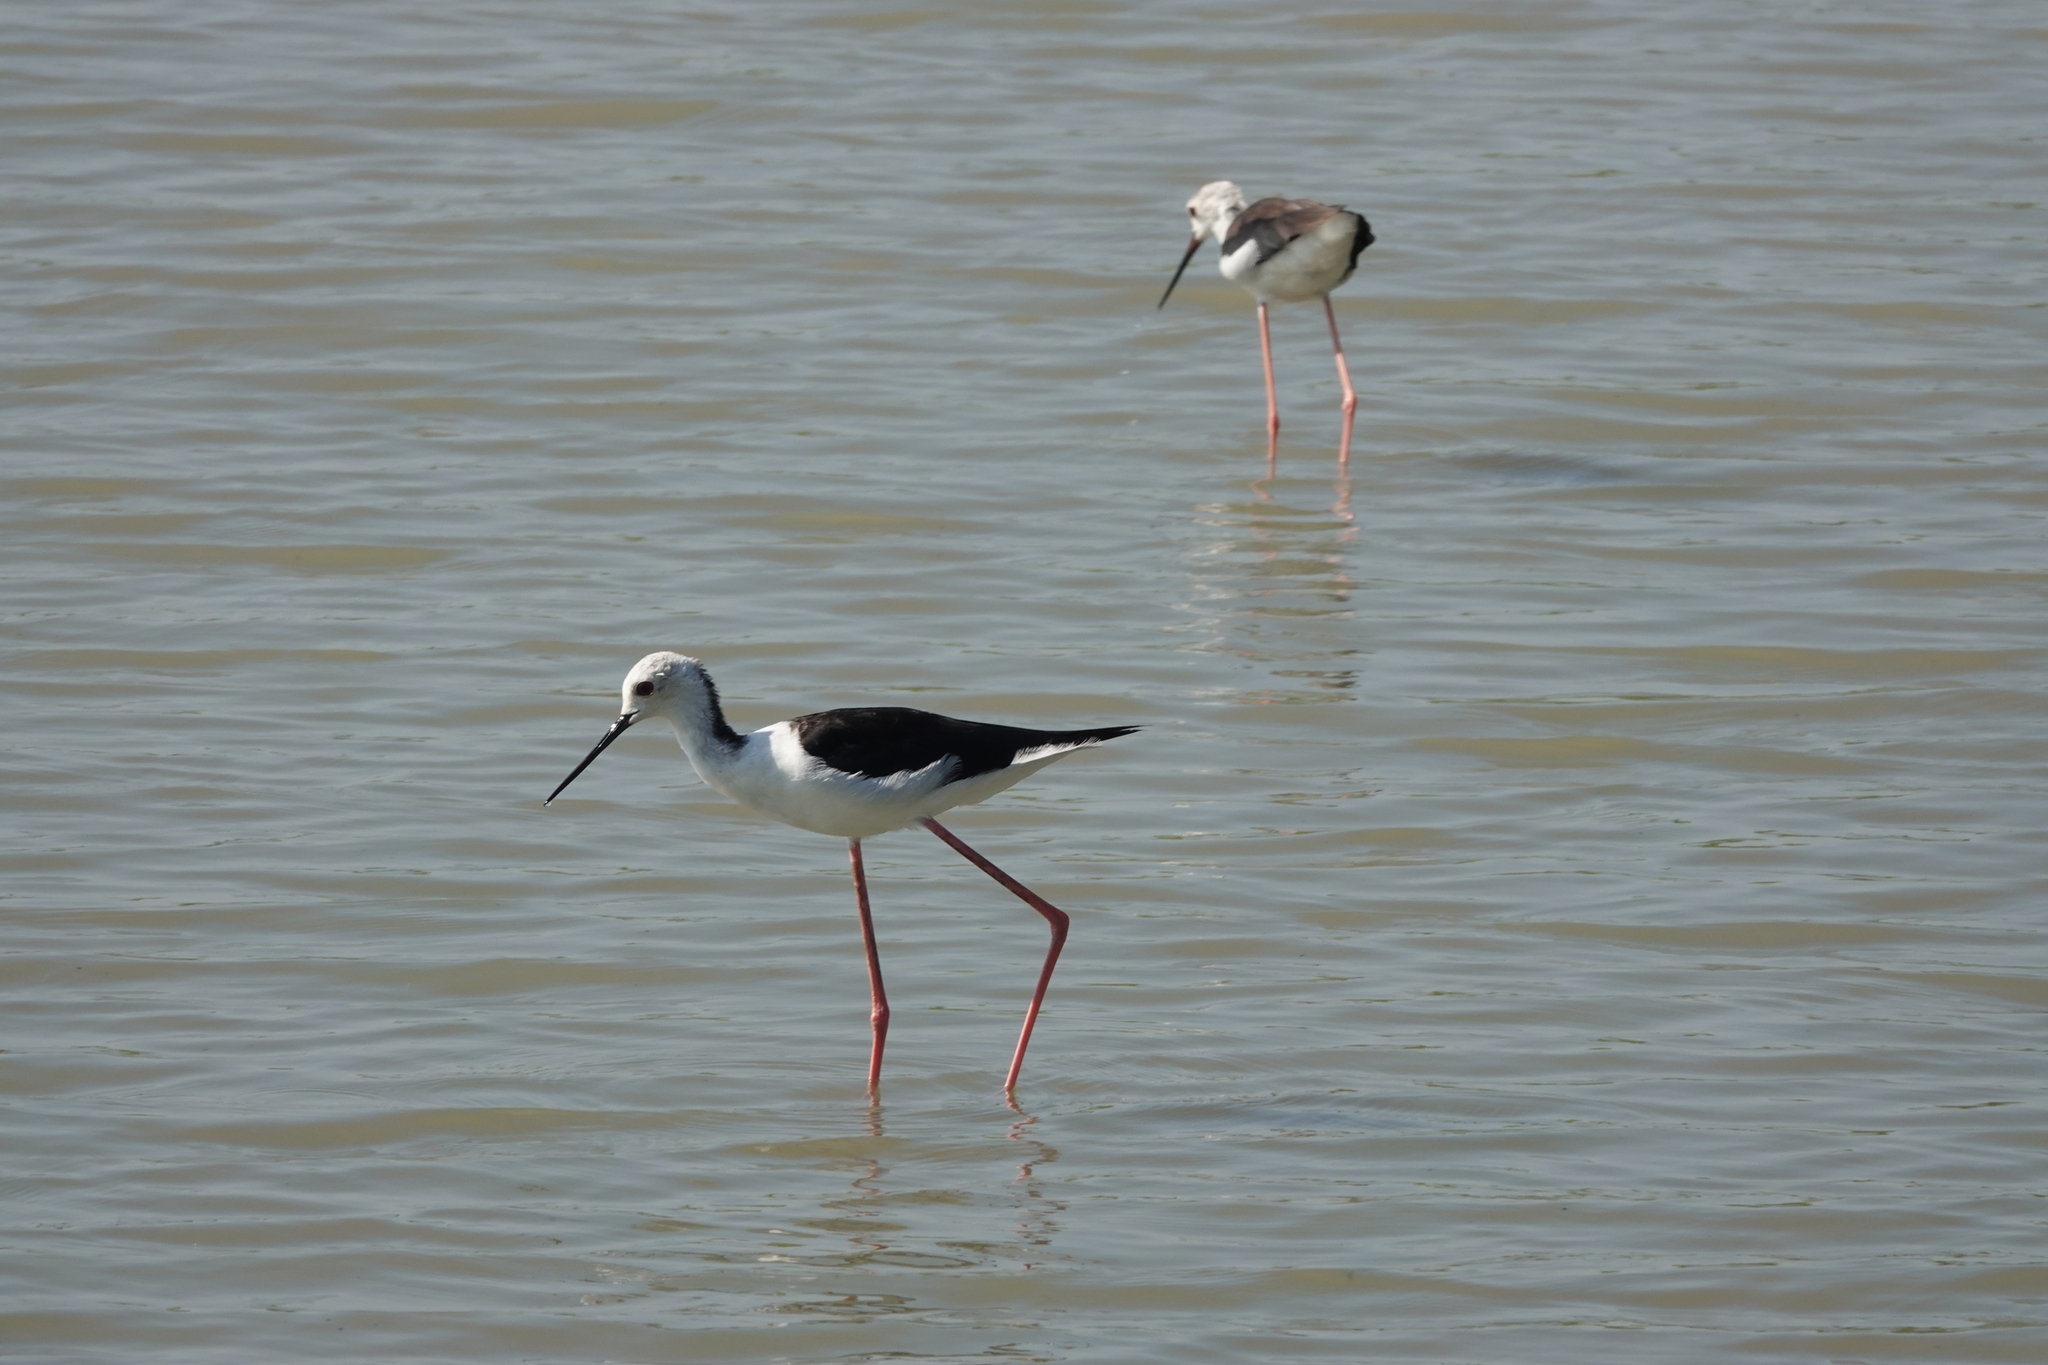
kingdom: Animalia
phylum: Chordata
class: Aves
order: Charadriiformes
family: Recurvirostridae
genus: Himantopus
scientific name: Himantopus himantopus
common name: Black-winged stilt
